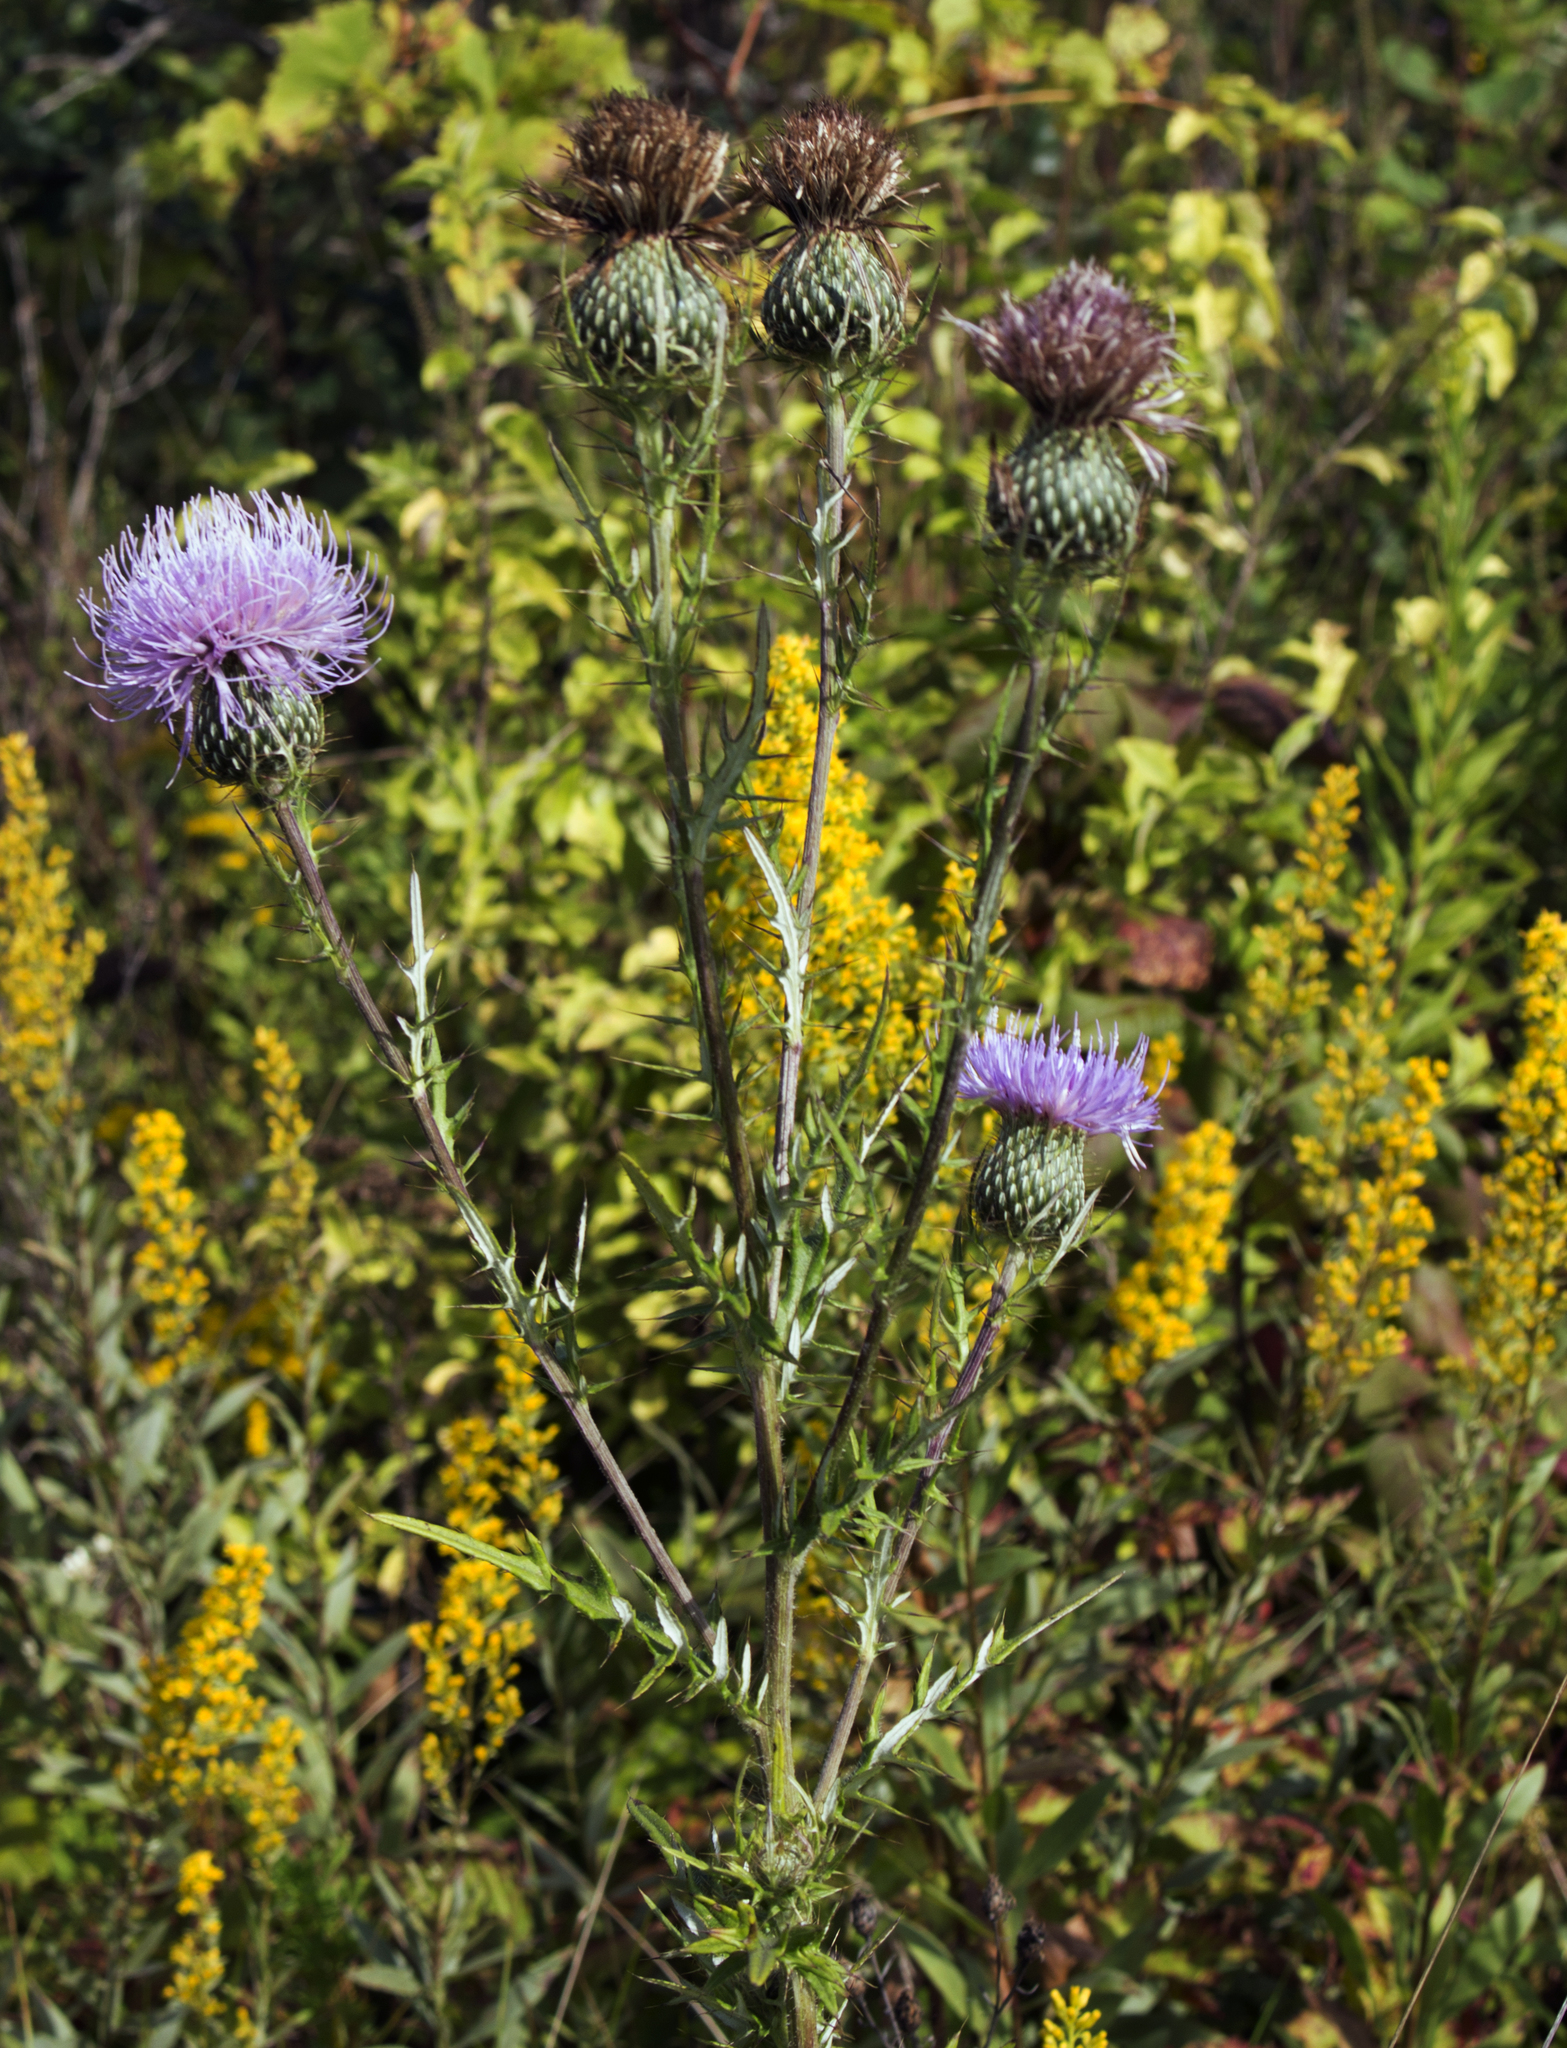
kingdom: Plantae
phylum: Tracheophyta
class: Magnoliopsida
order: Asterales
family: Asteraceae
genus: Cirsium
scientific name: Cirsium discolor
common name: Field thistle
